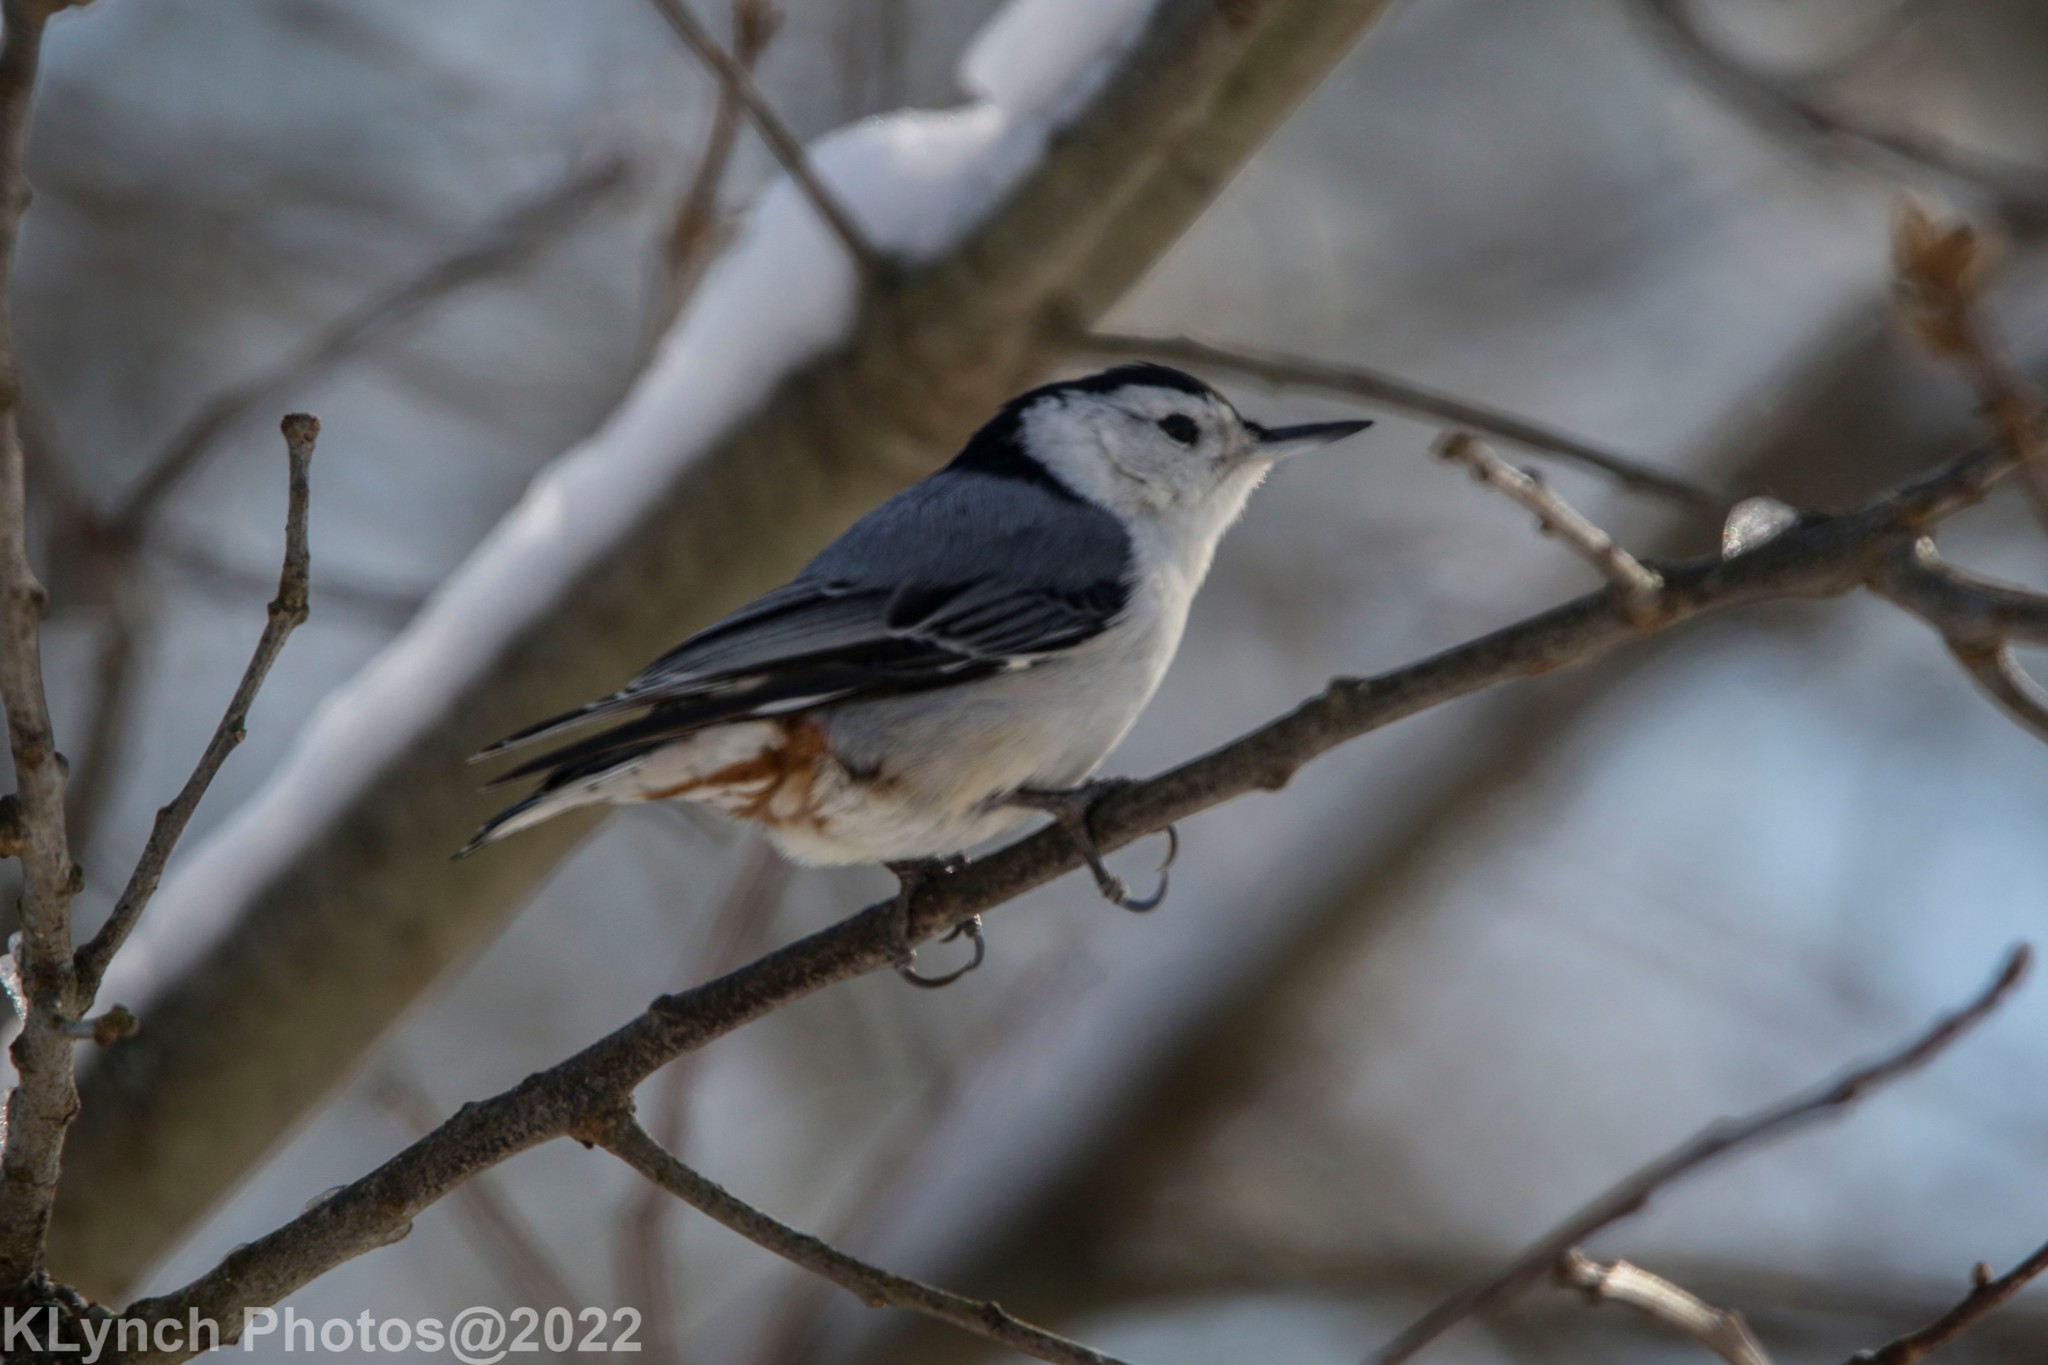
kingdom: Animalia
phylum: Chordata
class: Aves
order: Passeriformes
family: Sittidae
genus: Sitta
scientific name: Sitta carolinensis
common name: White-breasted nuthatch
